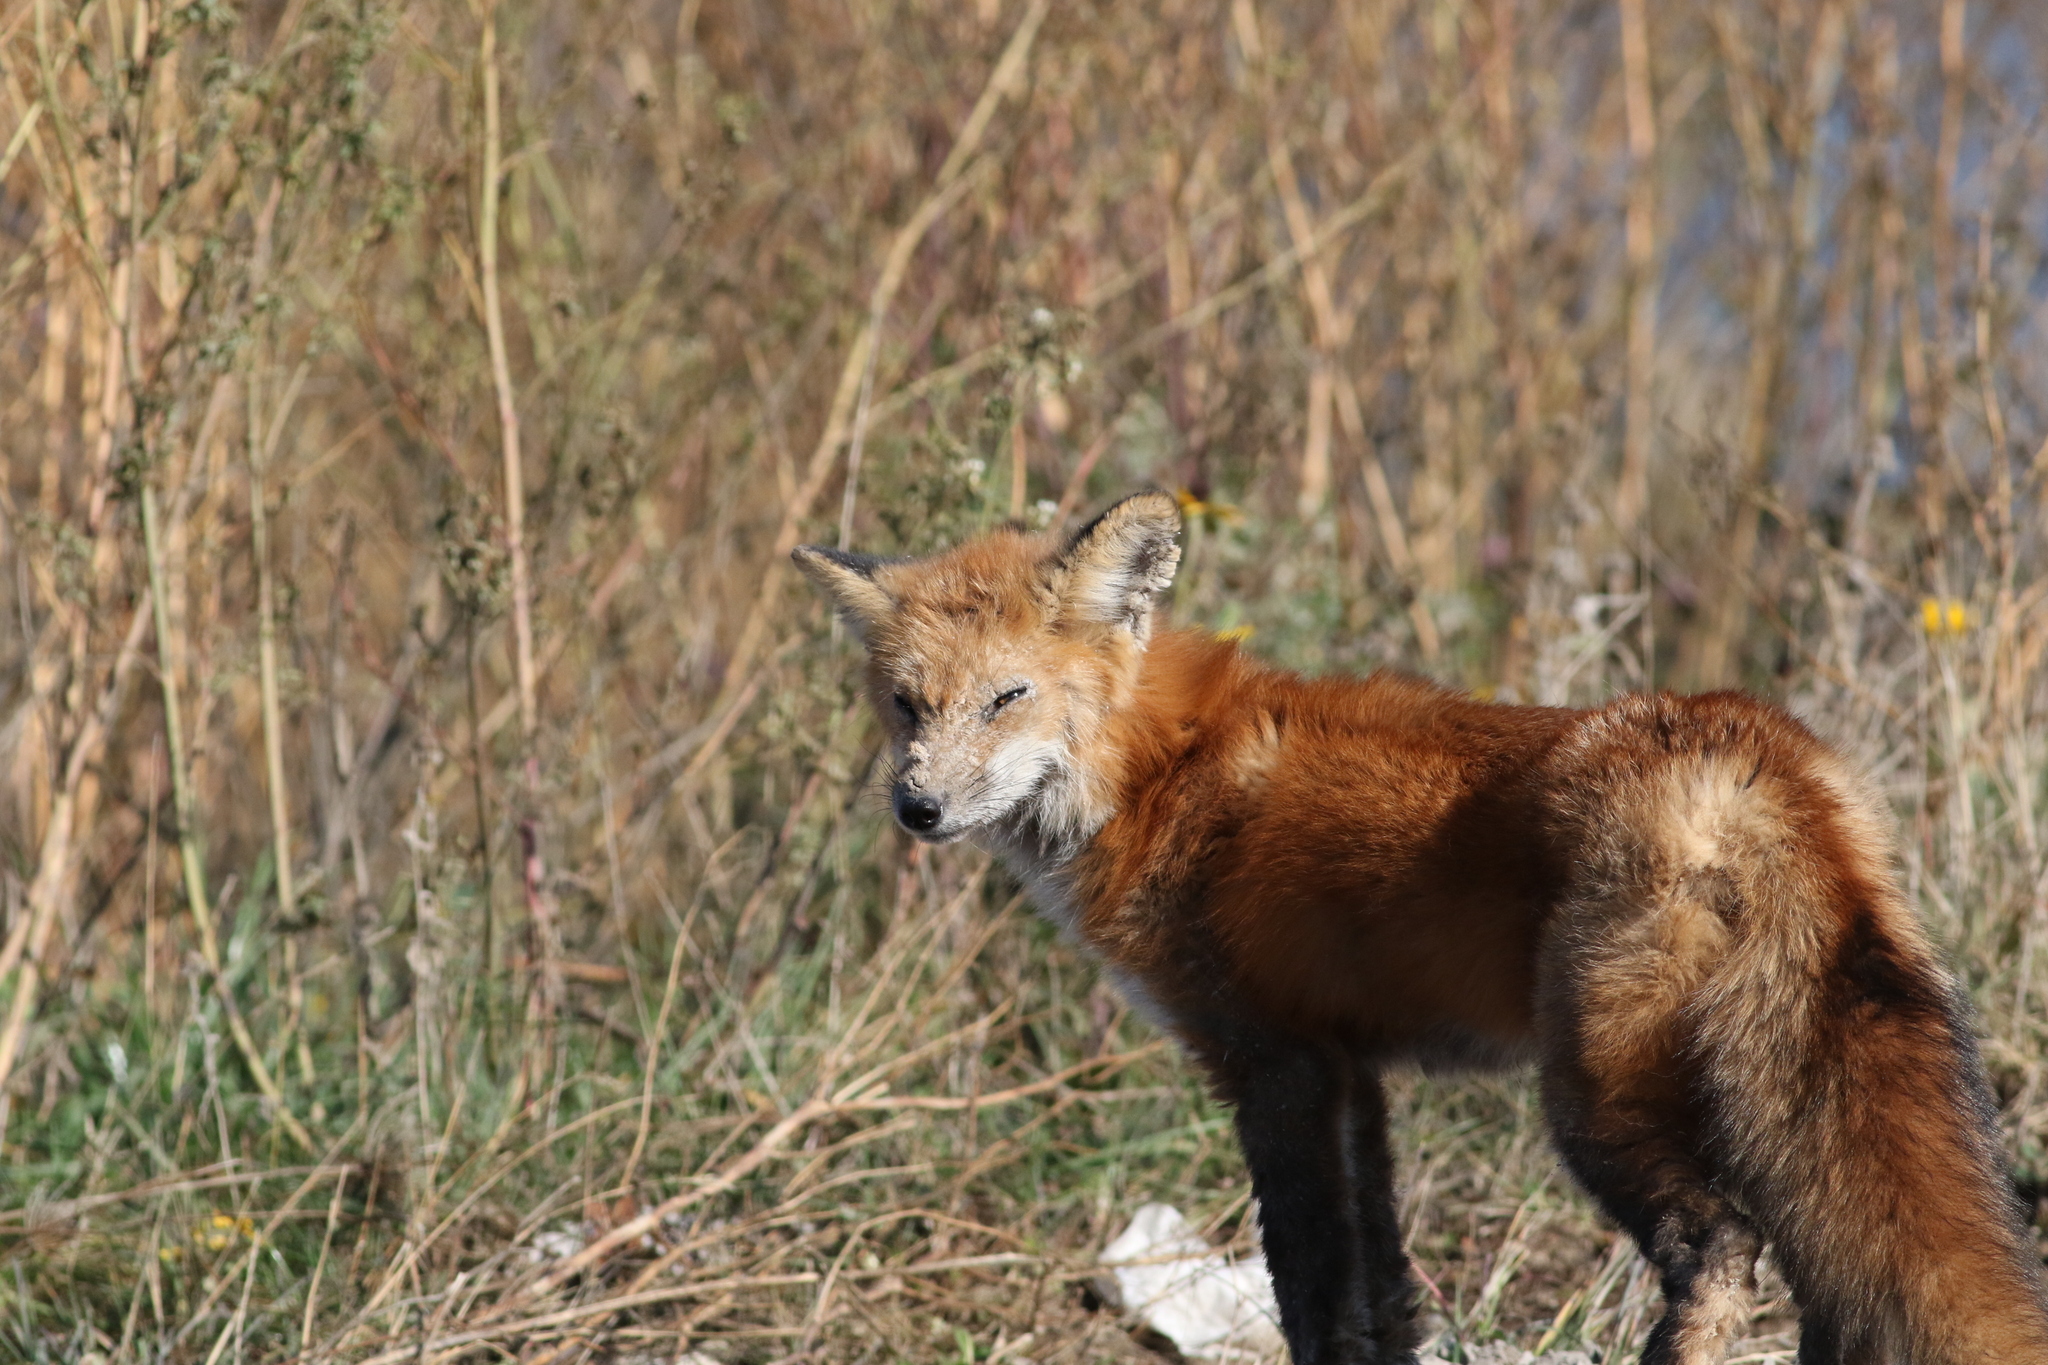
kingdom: Animalia
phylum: Chordata
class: Mammalia
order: Carnivora
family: Canidae
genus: Vulpes
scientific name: Vulpes vulpes
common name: Red fox
